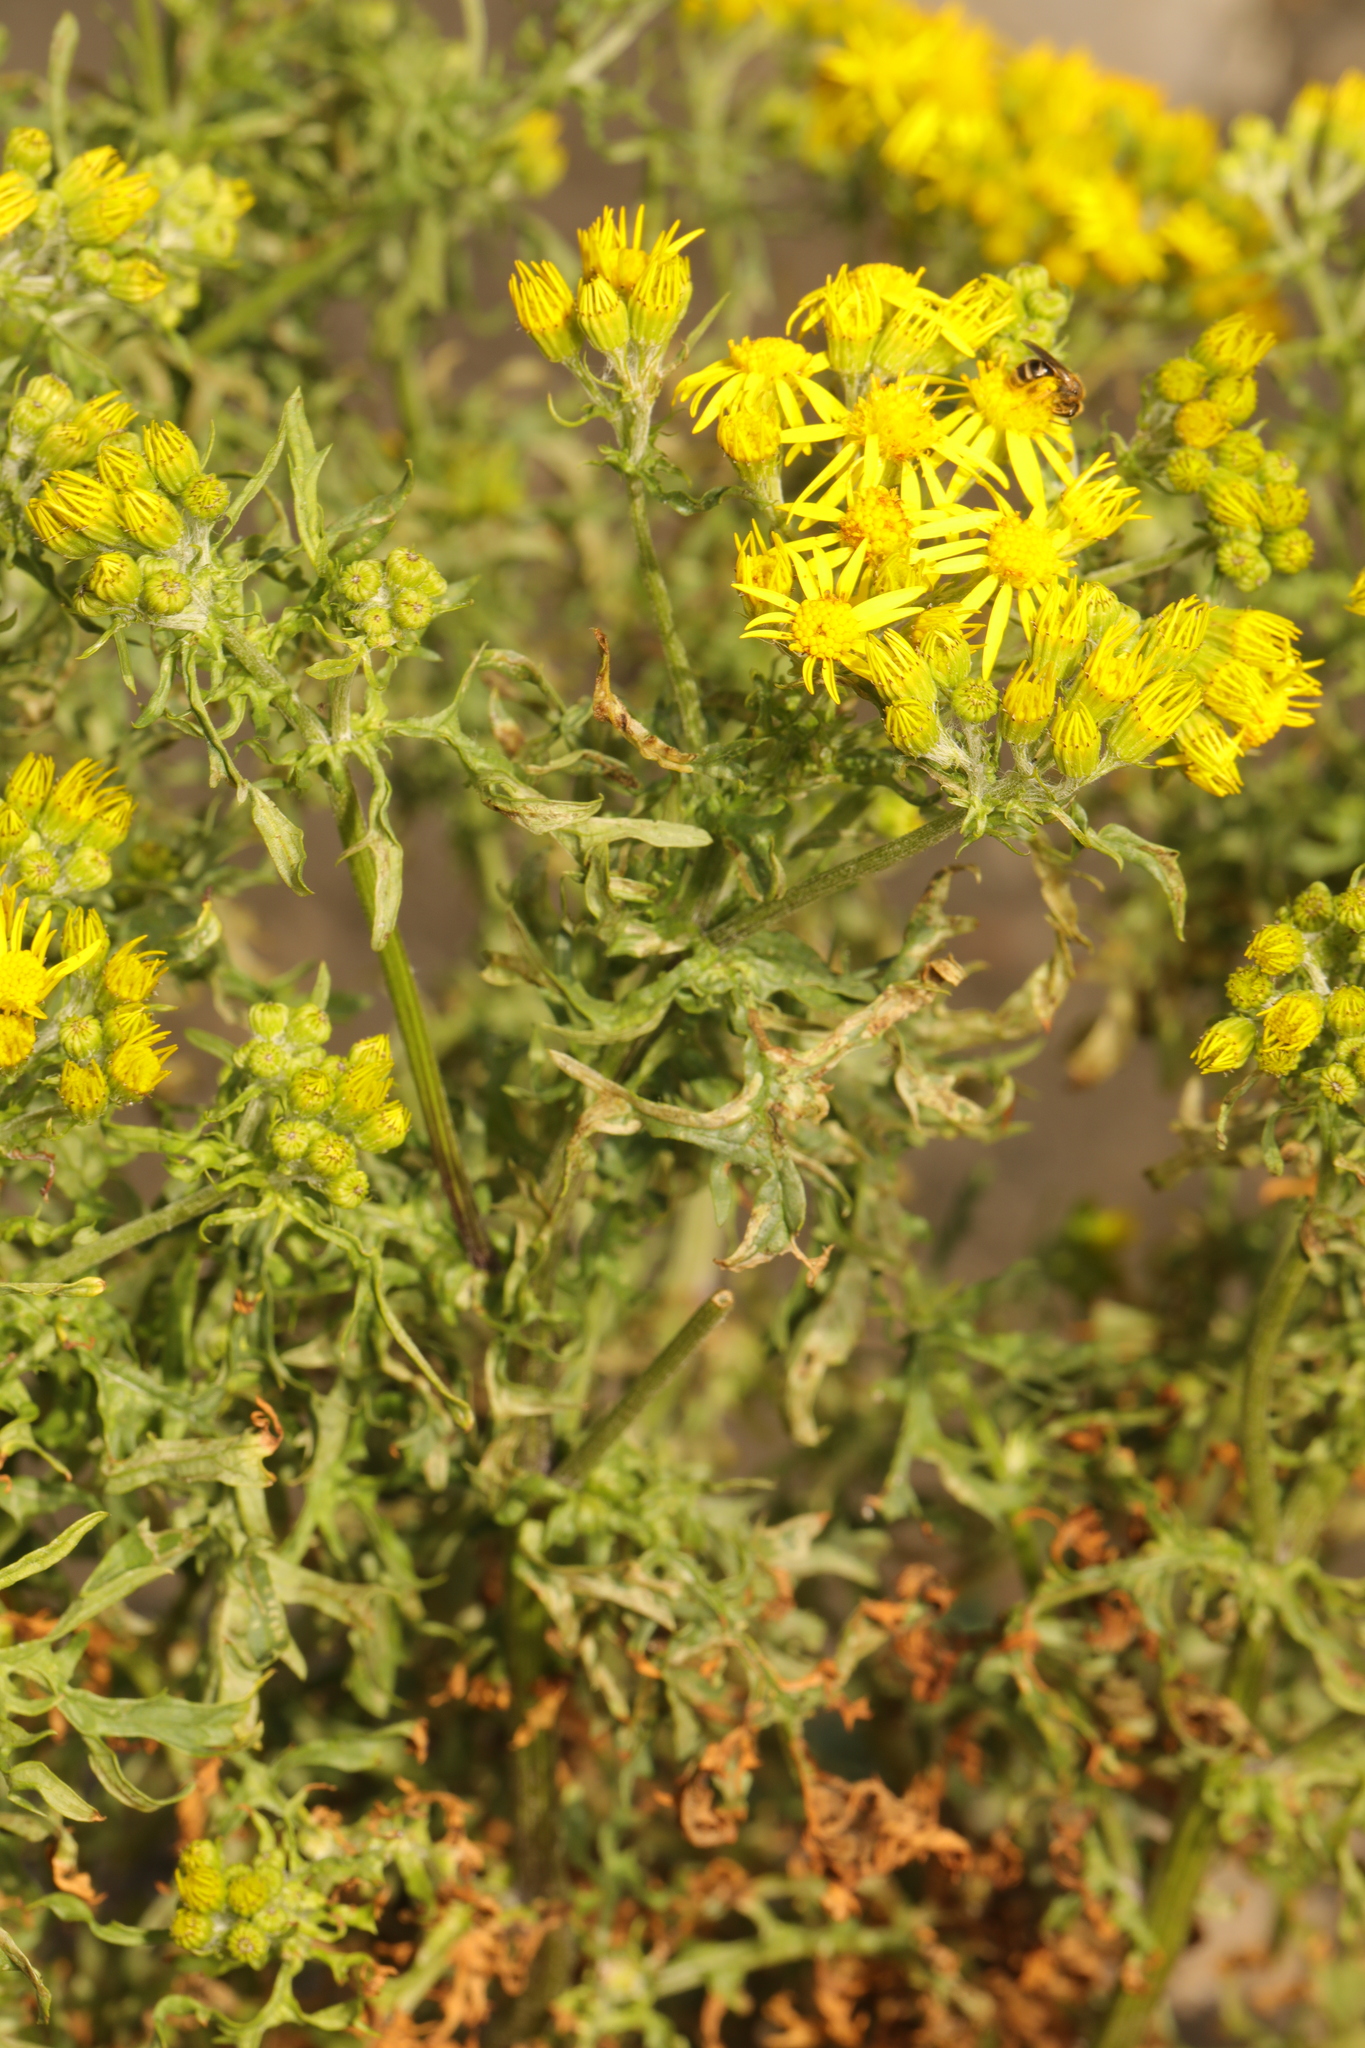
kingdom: Plantae
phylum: Tracheophyta
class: Magnoliopsida
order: Asterales
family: Asteraceae
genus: Jacobaea
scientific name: Jacobaea vulgaris
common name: Stinking willie
